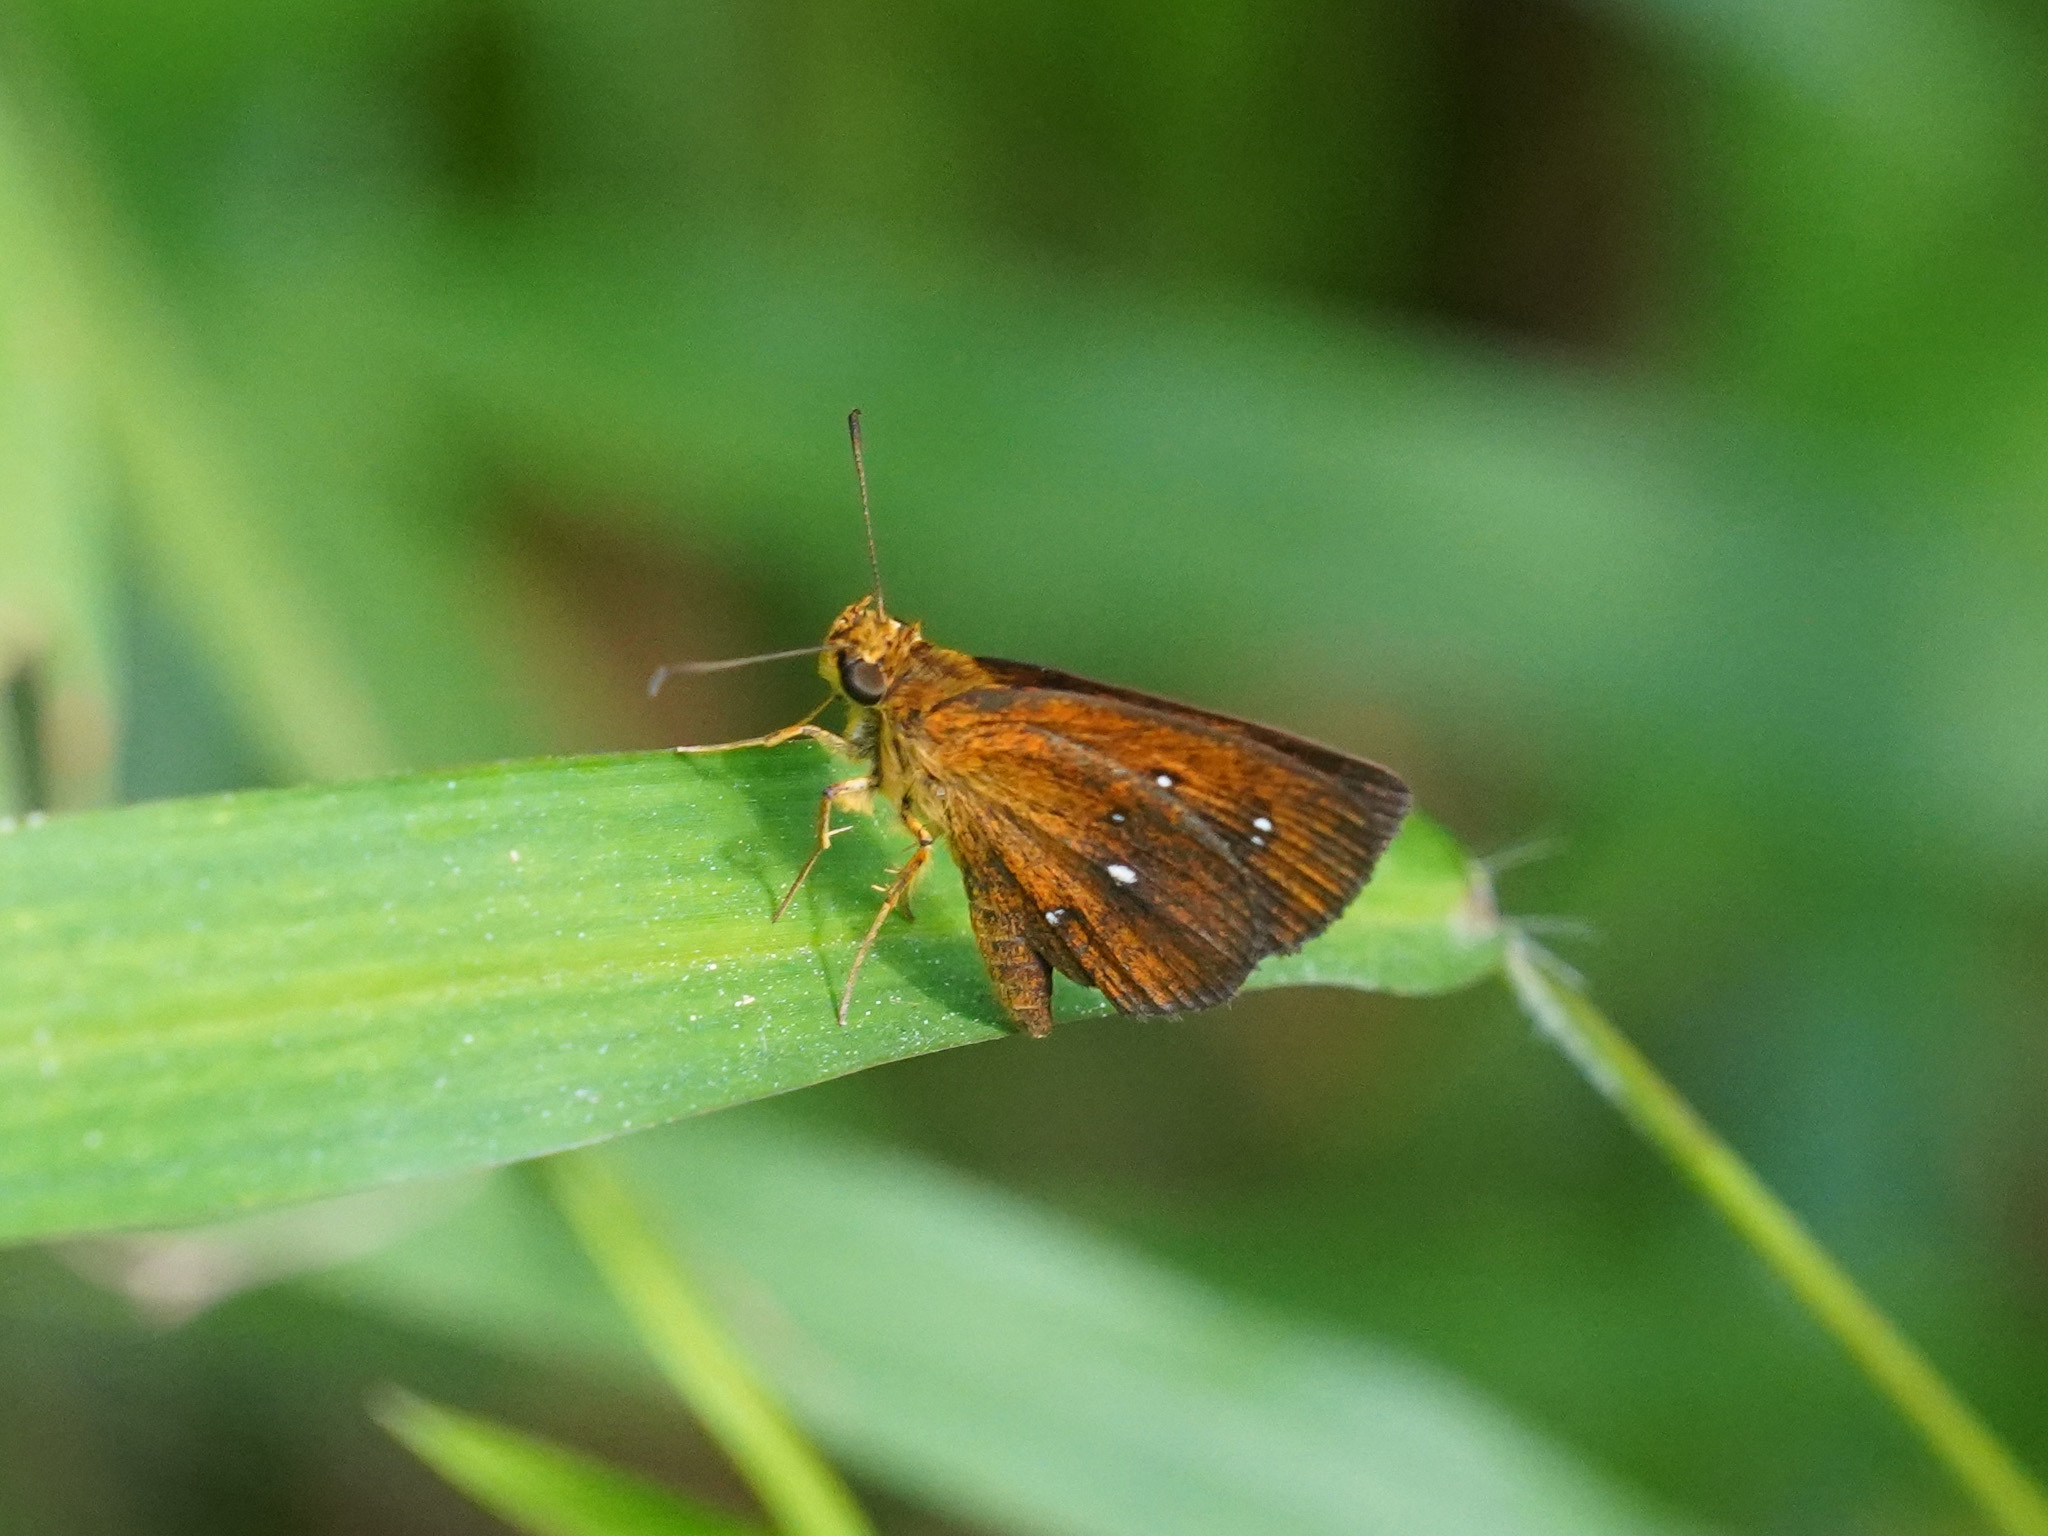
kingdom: Animalia
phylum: Arthropoda
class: Insecta
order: Lepidoptera
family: Hesperiidae
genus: Iambrix
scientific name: Iambrix salsala
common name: Chestnut bob
